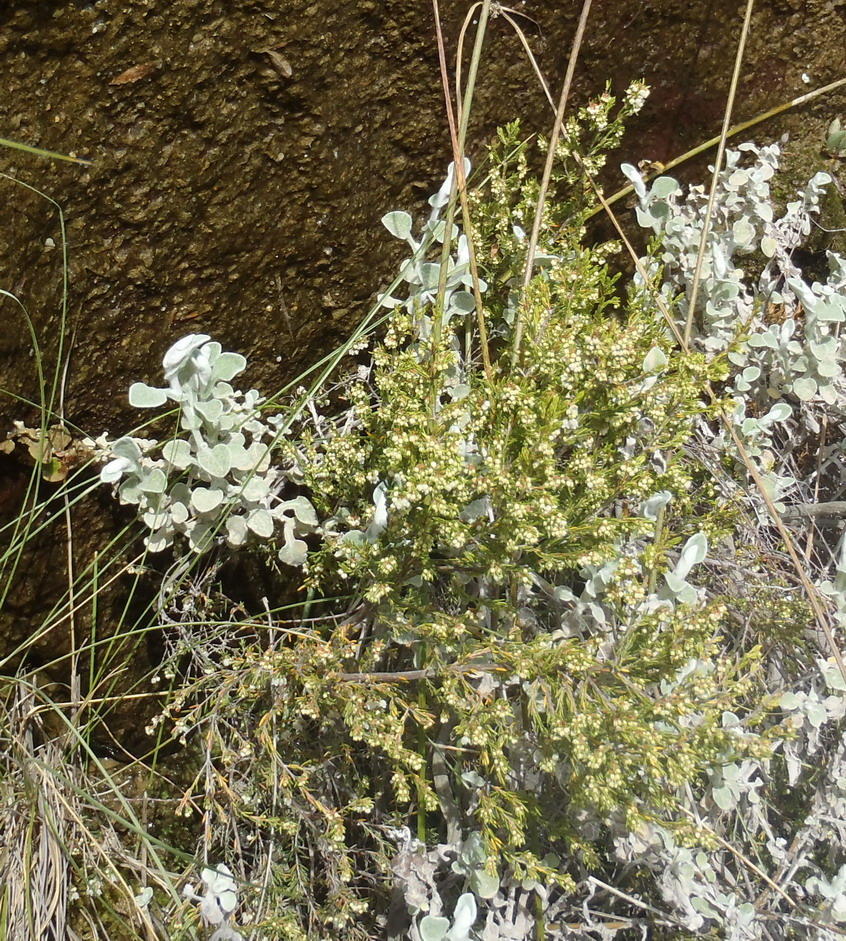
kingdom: Plantae
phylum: Tracheophyta
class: Magnoliopsida
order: Ericales
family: Ericaceae
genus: Erica
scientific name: Erica tenuis
